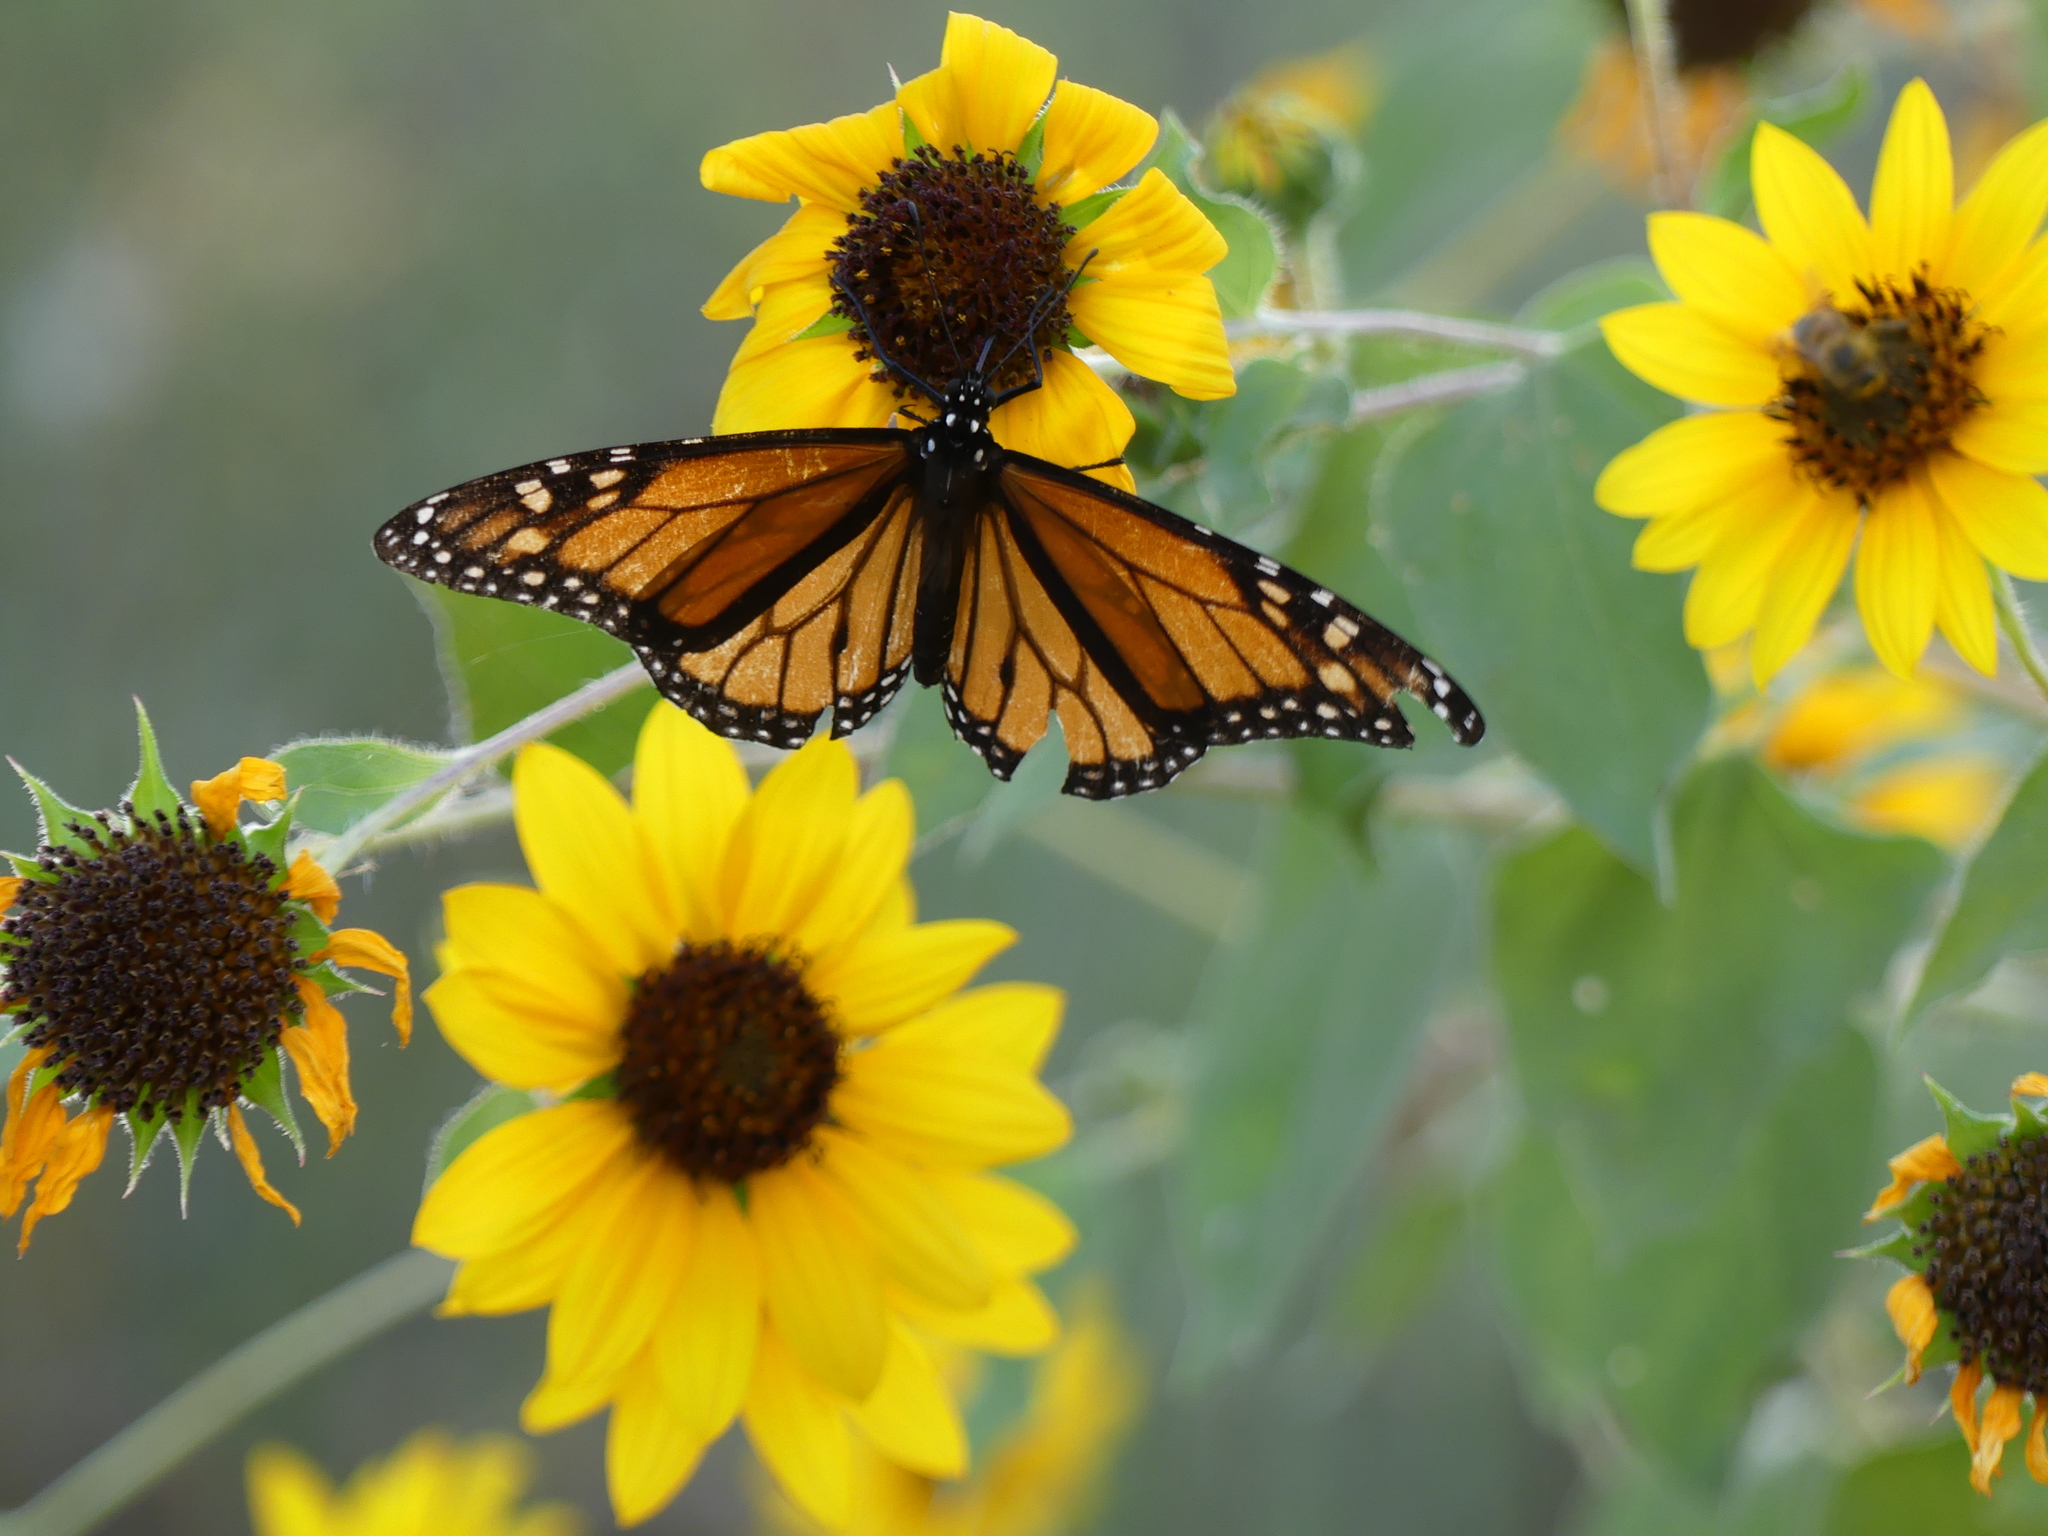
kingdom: Animalia
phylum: Arthropoda
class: Insecta
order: Lepidoptera
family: Nymphalidae
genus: Danaus
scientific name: Danaus plexippus
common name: Monarch
